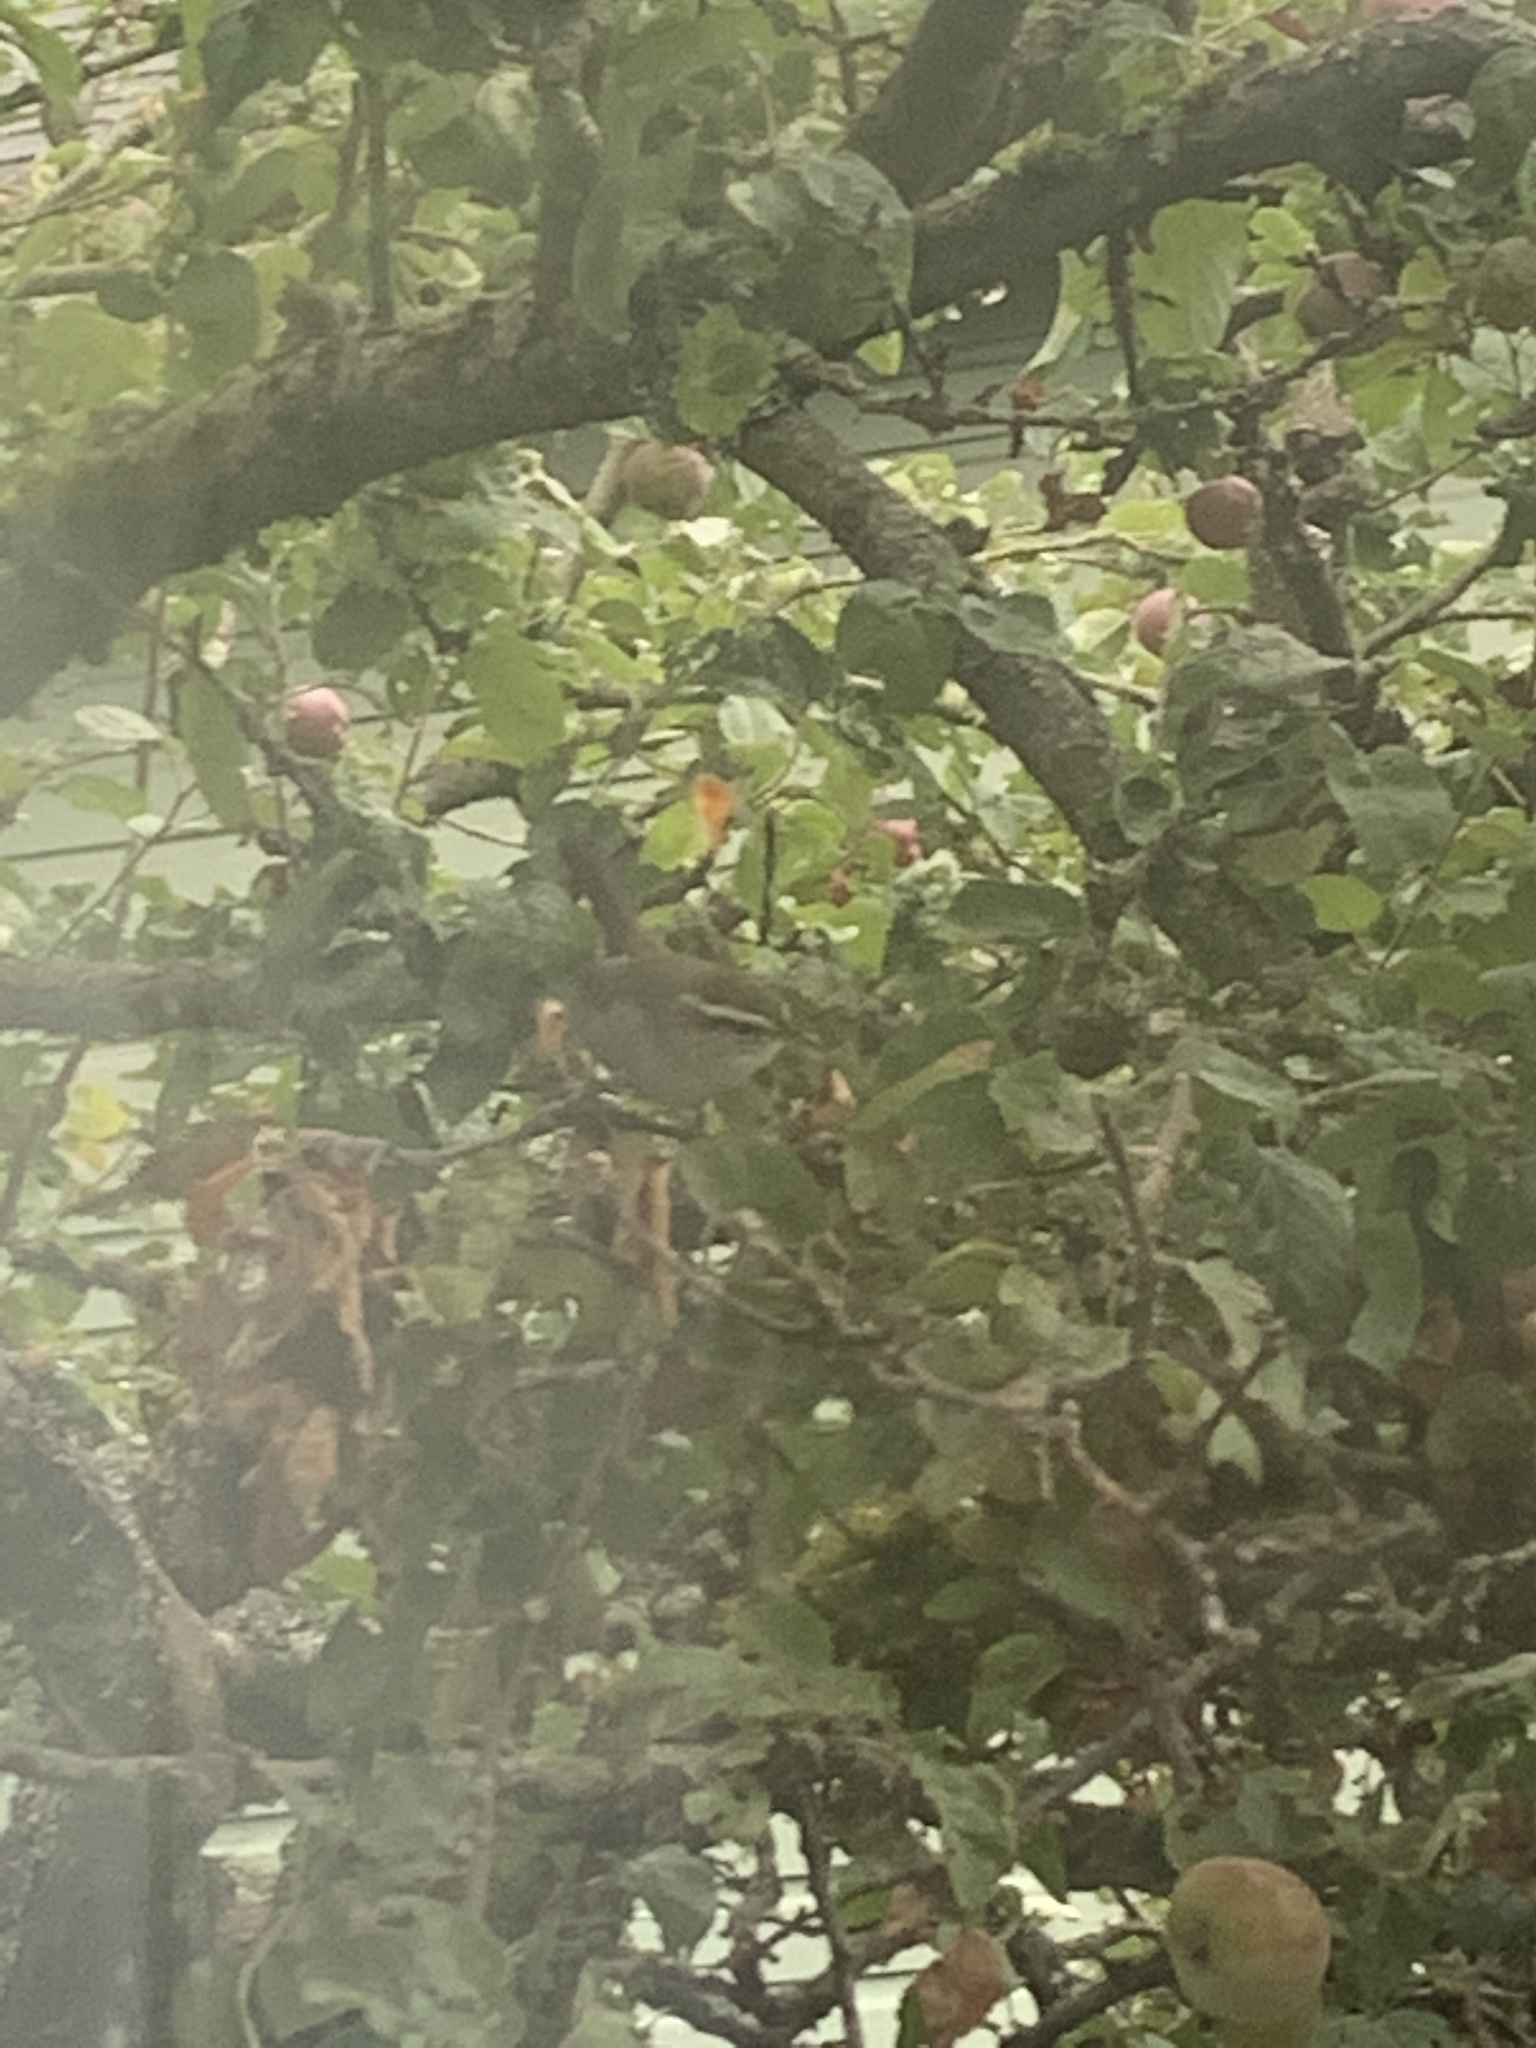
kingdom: Animalia
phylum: Chordata
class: Aves
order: Passeriformes
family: Troglodytidae
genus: Thryomanes
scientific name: Thryomanes bewickii
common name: Bewick's wren
